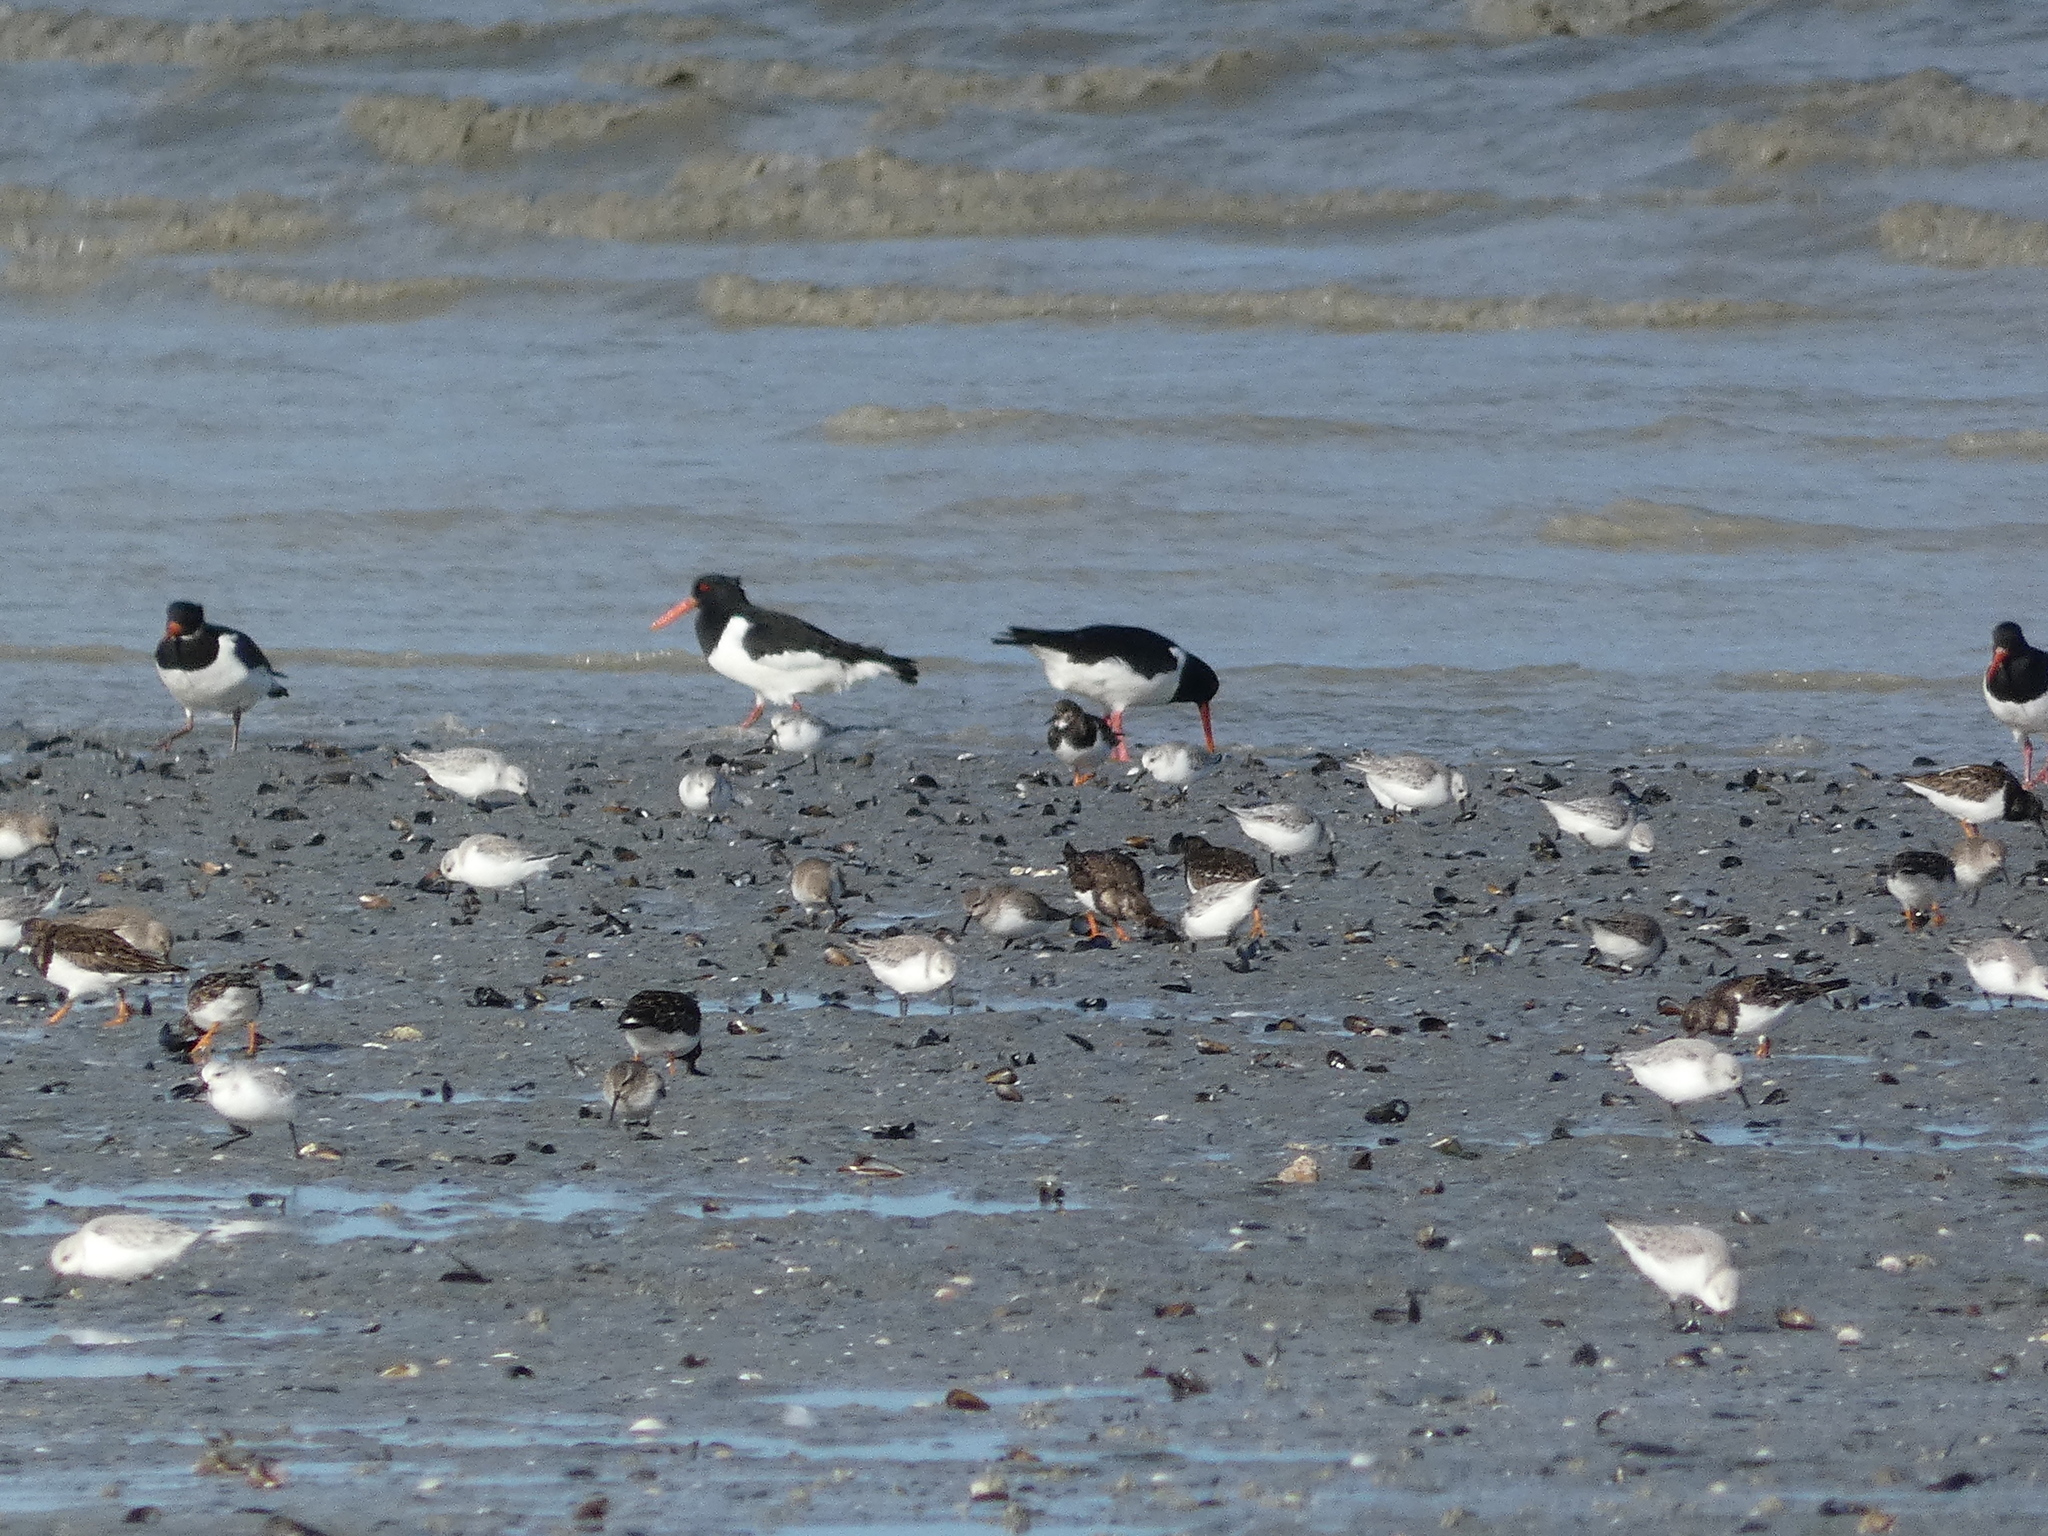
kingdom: Animalia
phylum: Chordata
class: Aves
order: Charadriiformes
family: Scolopacidae
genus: Arenaria
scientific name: Arenaria interpres
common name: Ruddy turnstone
